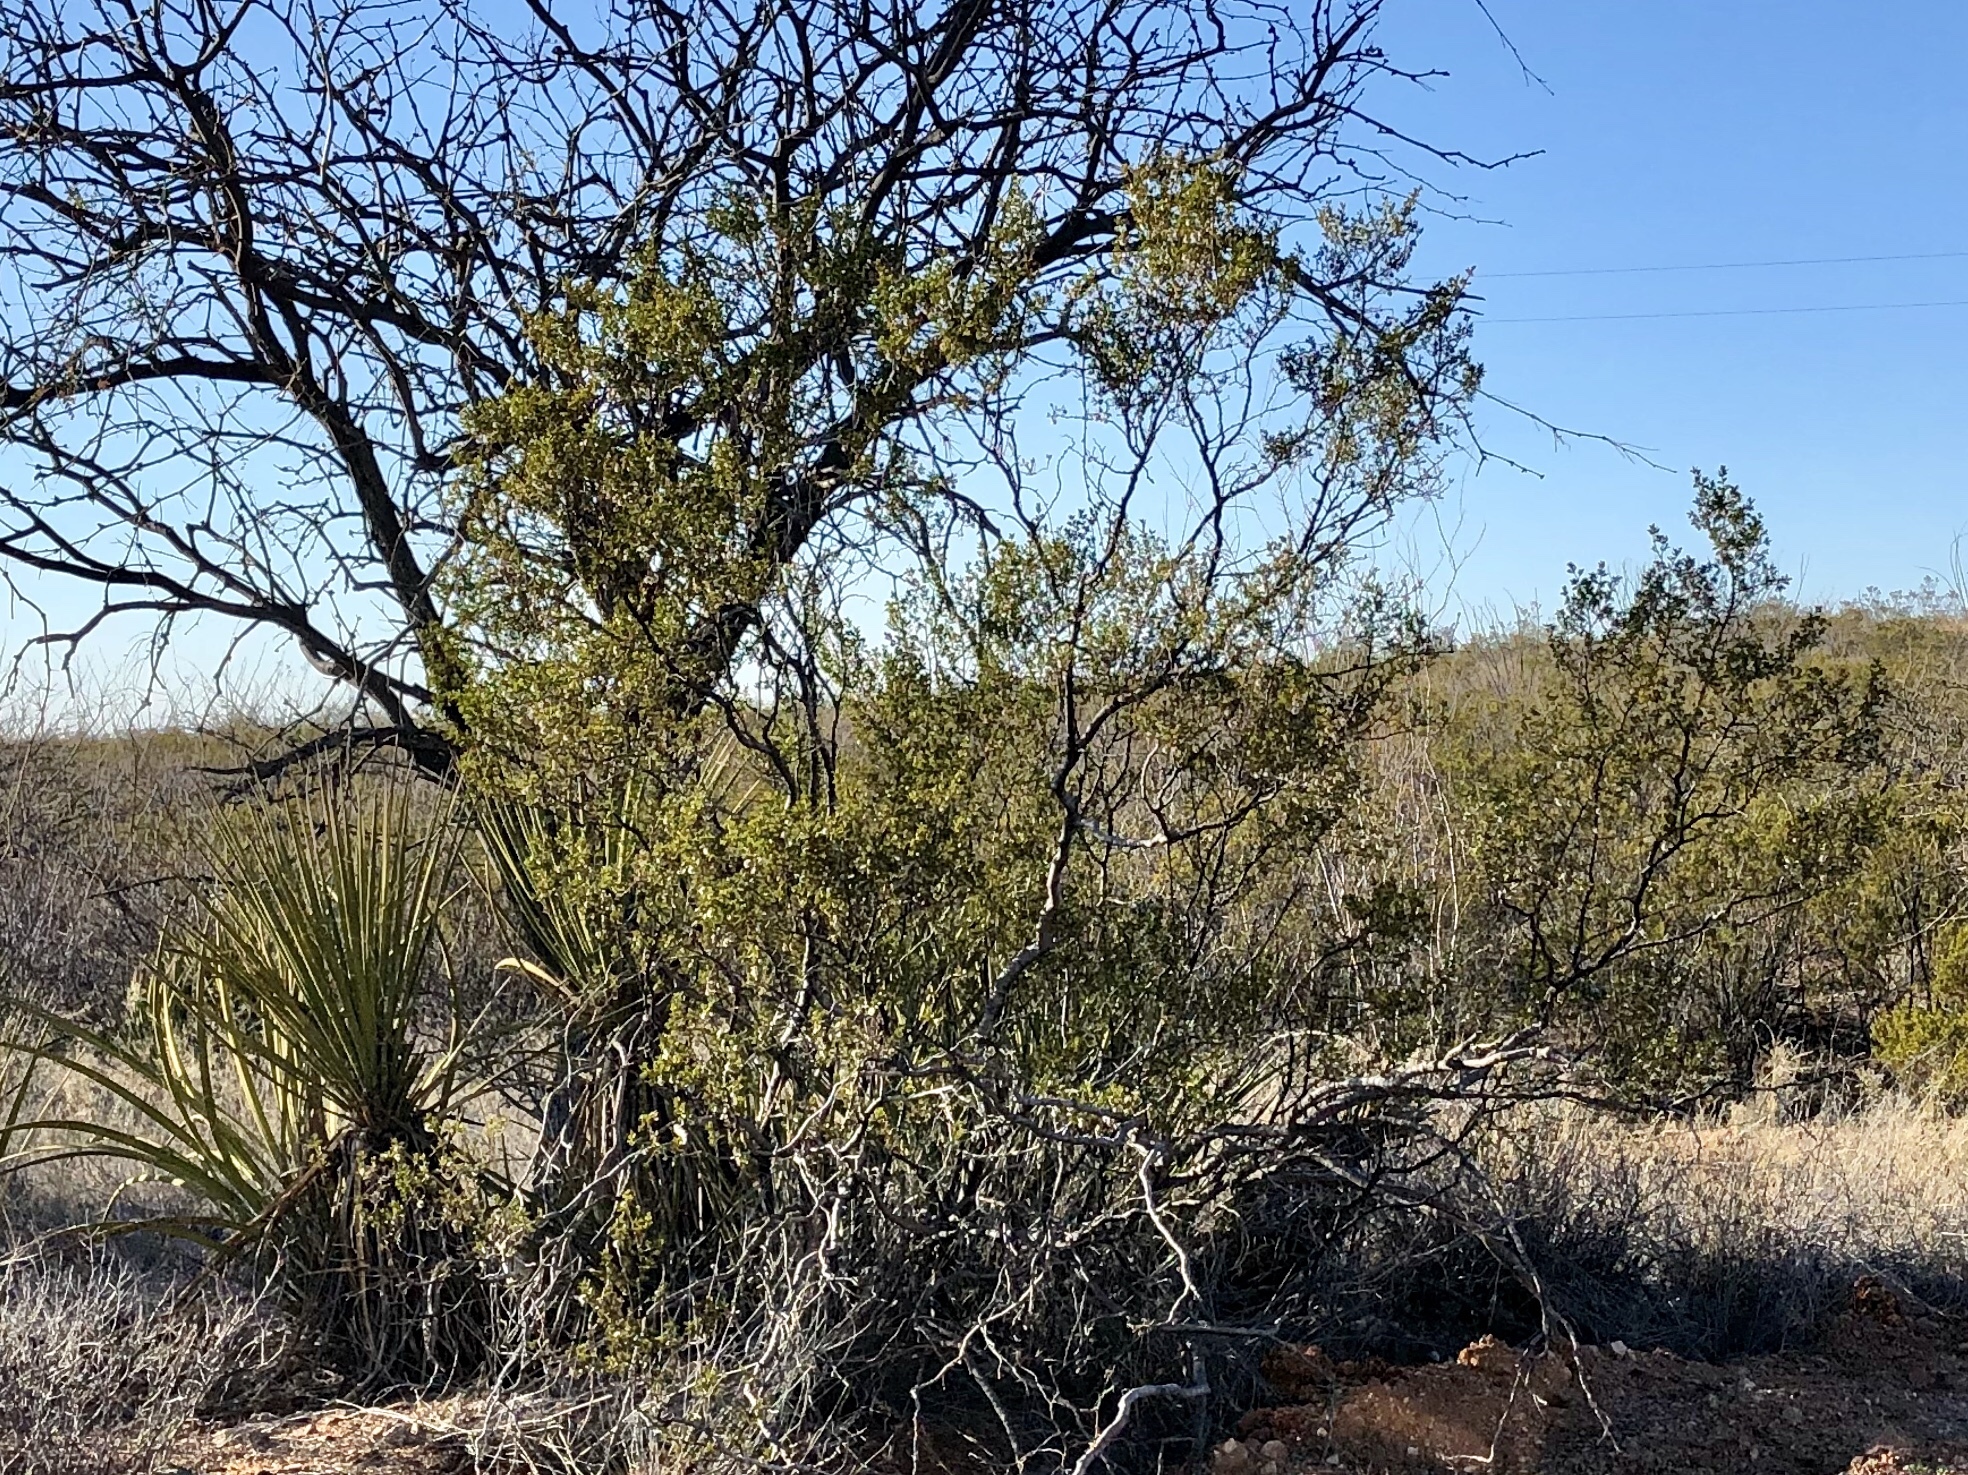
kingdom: Plantae
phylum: Tracheophyta
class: Magnoliopsida
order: Zygophyllales
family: Zygophyllaceae
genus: Larrea
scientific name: Larrea tridentata
